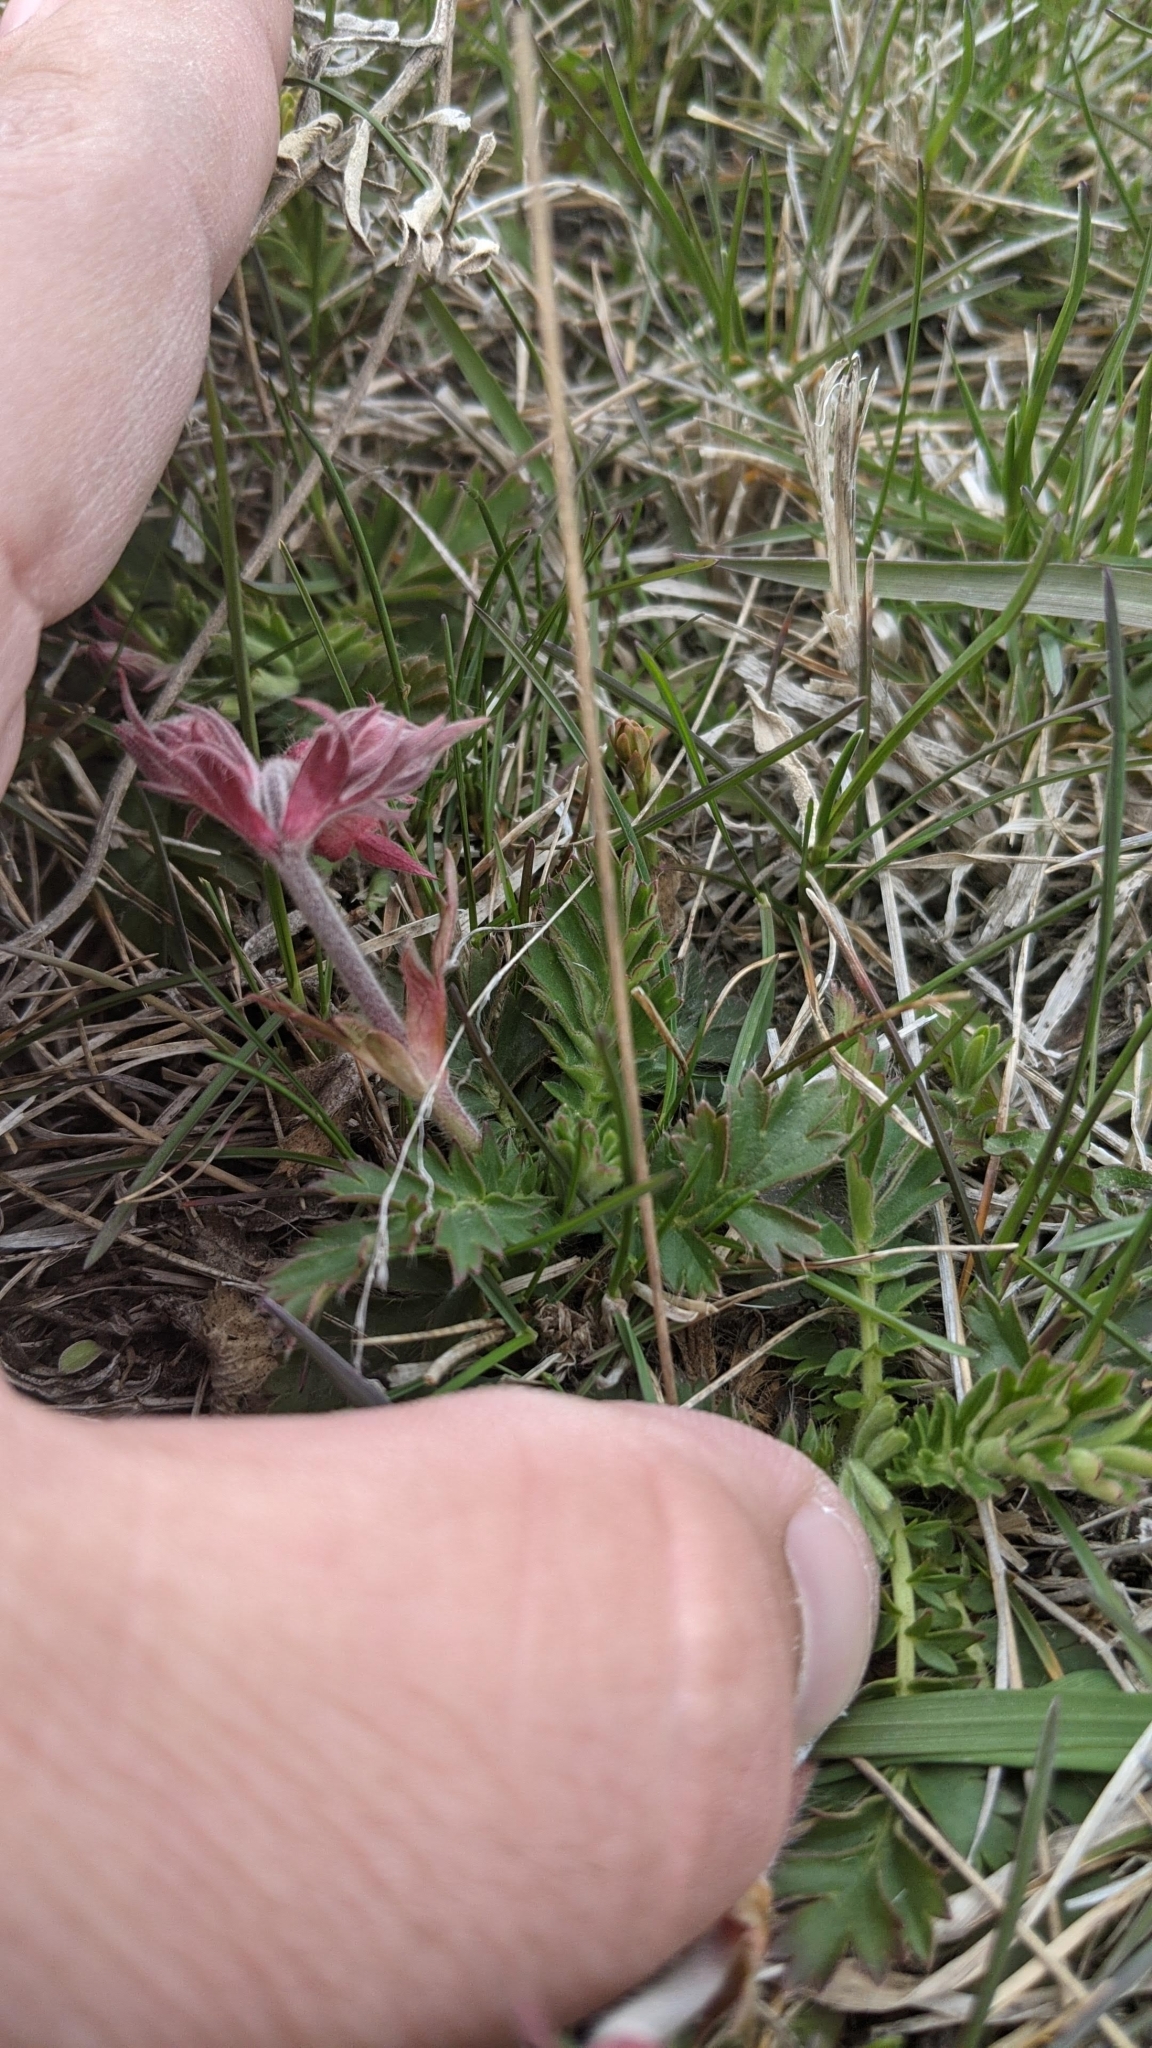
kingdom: Plantae
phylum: Tracheophyta
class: Magnoliopsida
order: Rosales
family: Rosaceae
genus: Geum
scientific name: Geum triflorum
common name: Old man's whiskers
